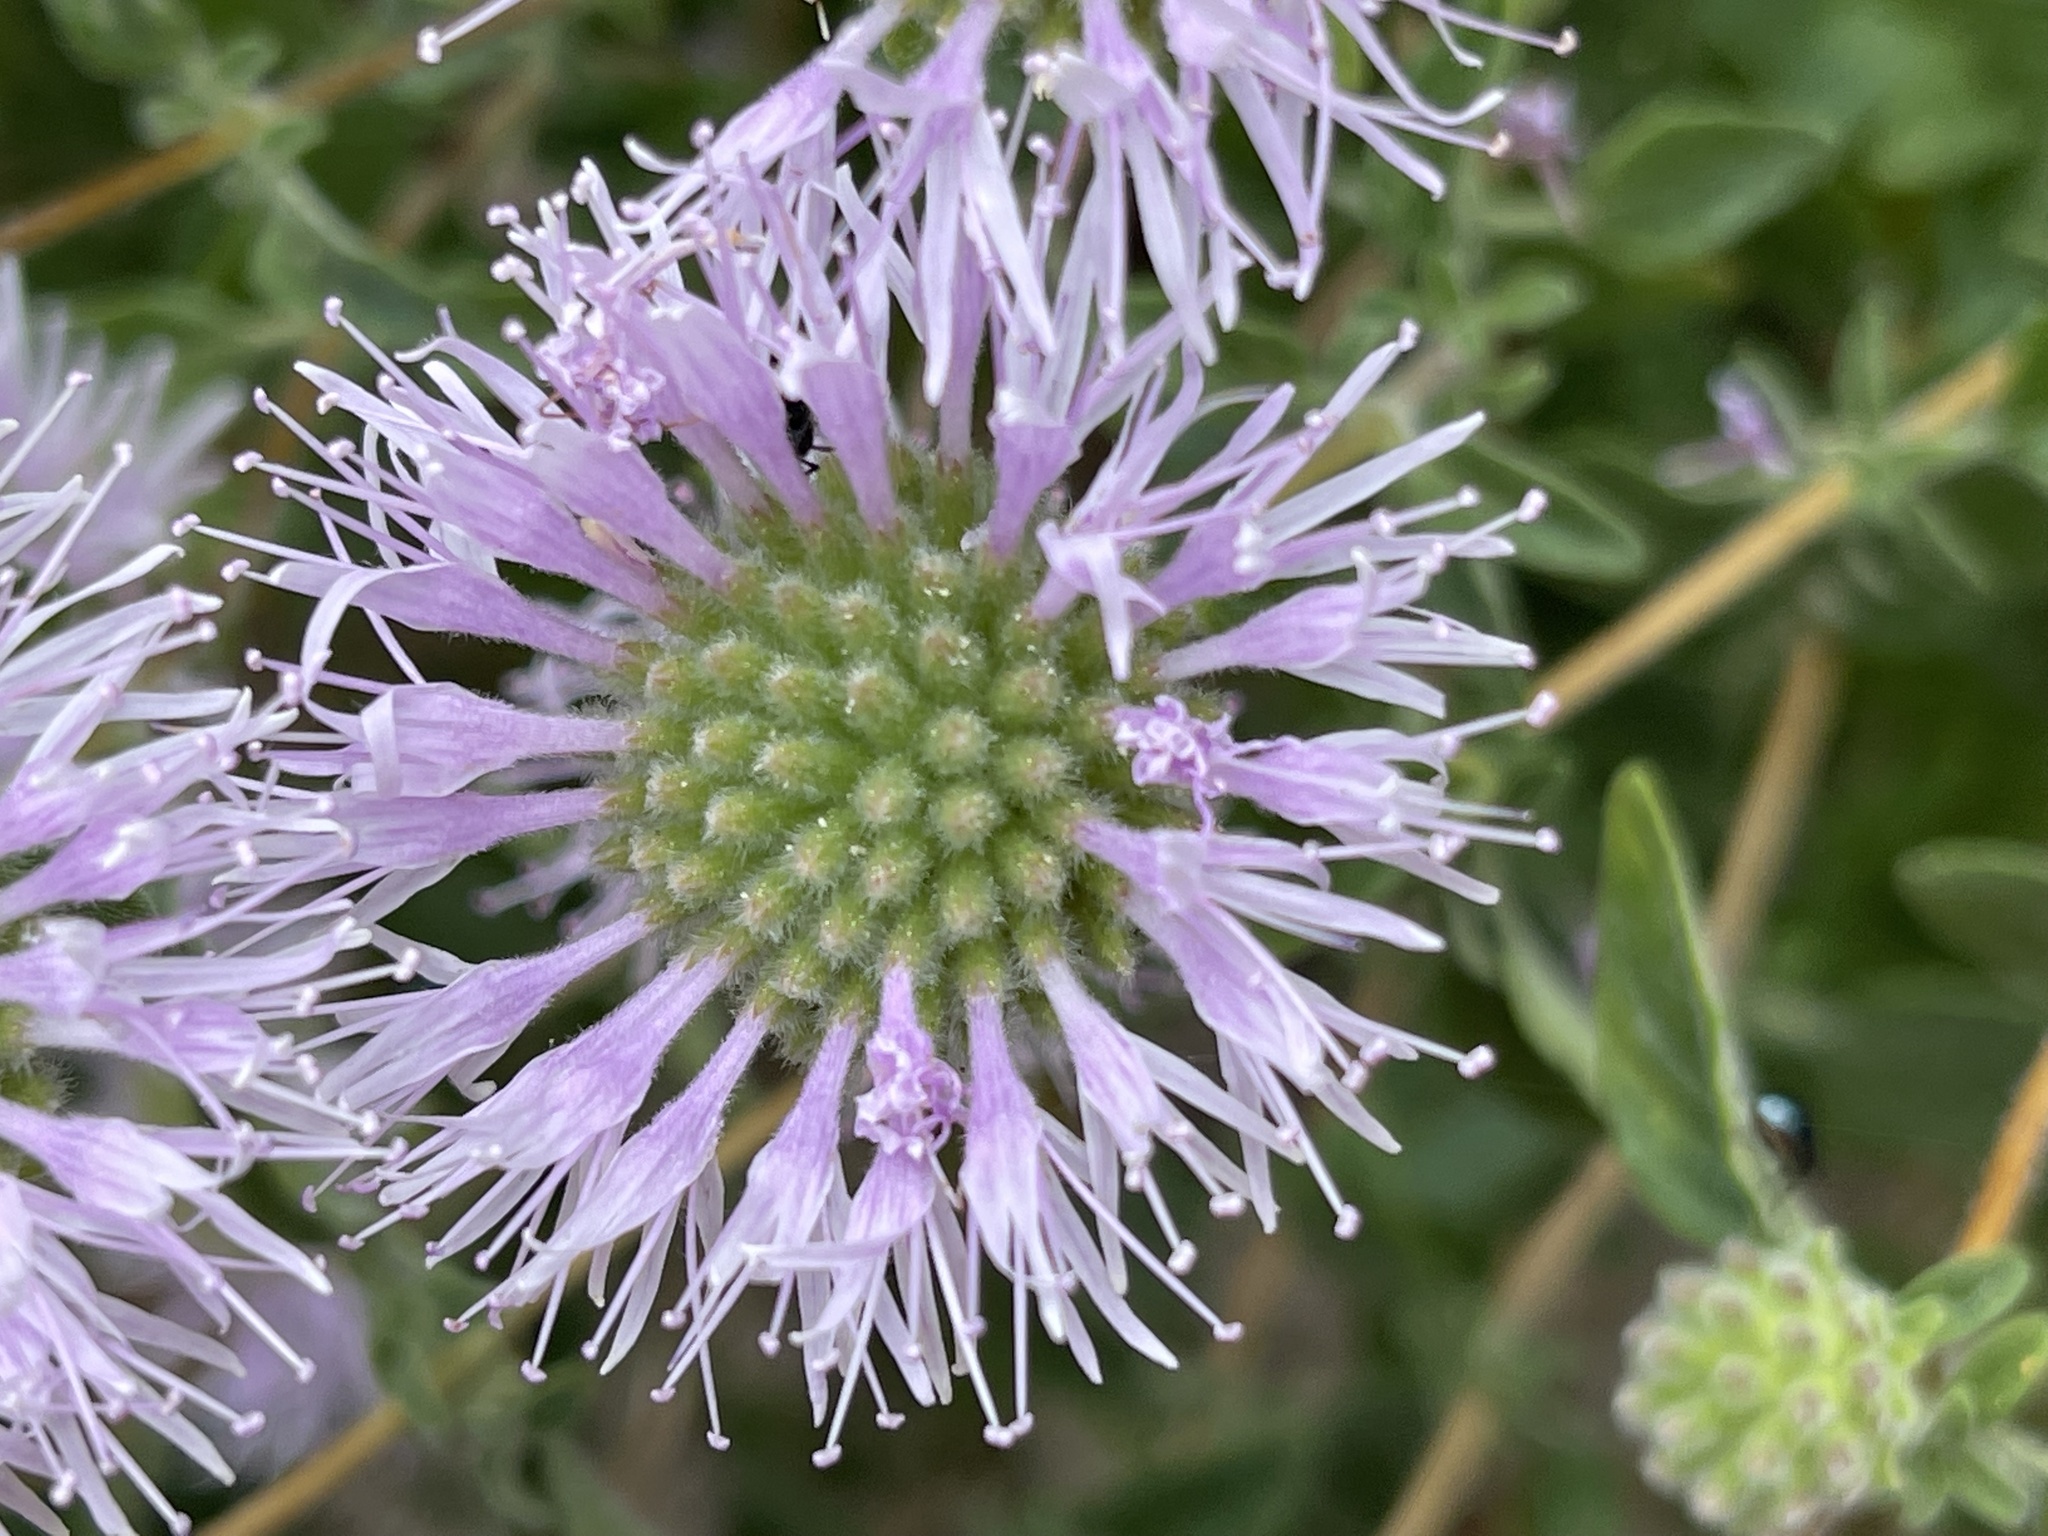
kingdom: Plantae
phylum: Tracheophyta
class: Magnoliopsida
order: Lamiales
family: Lamiaceae
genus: Monardella
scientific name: Monardella odoratissima
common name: Pacific monardella
